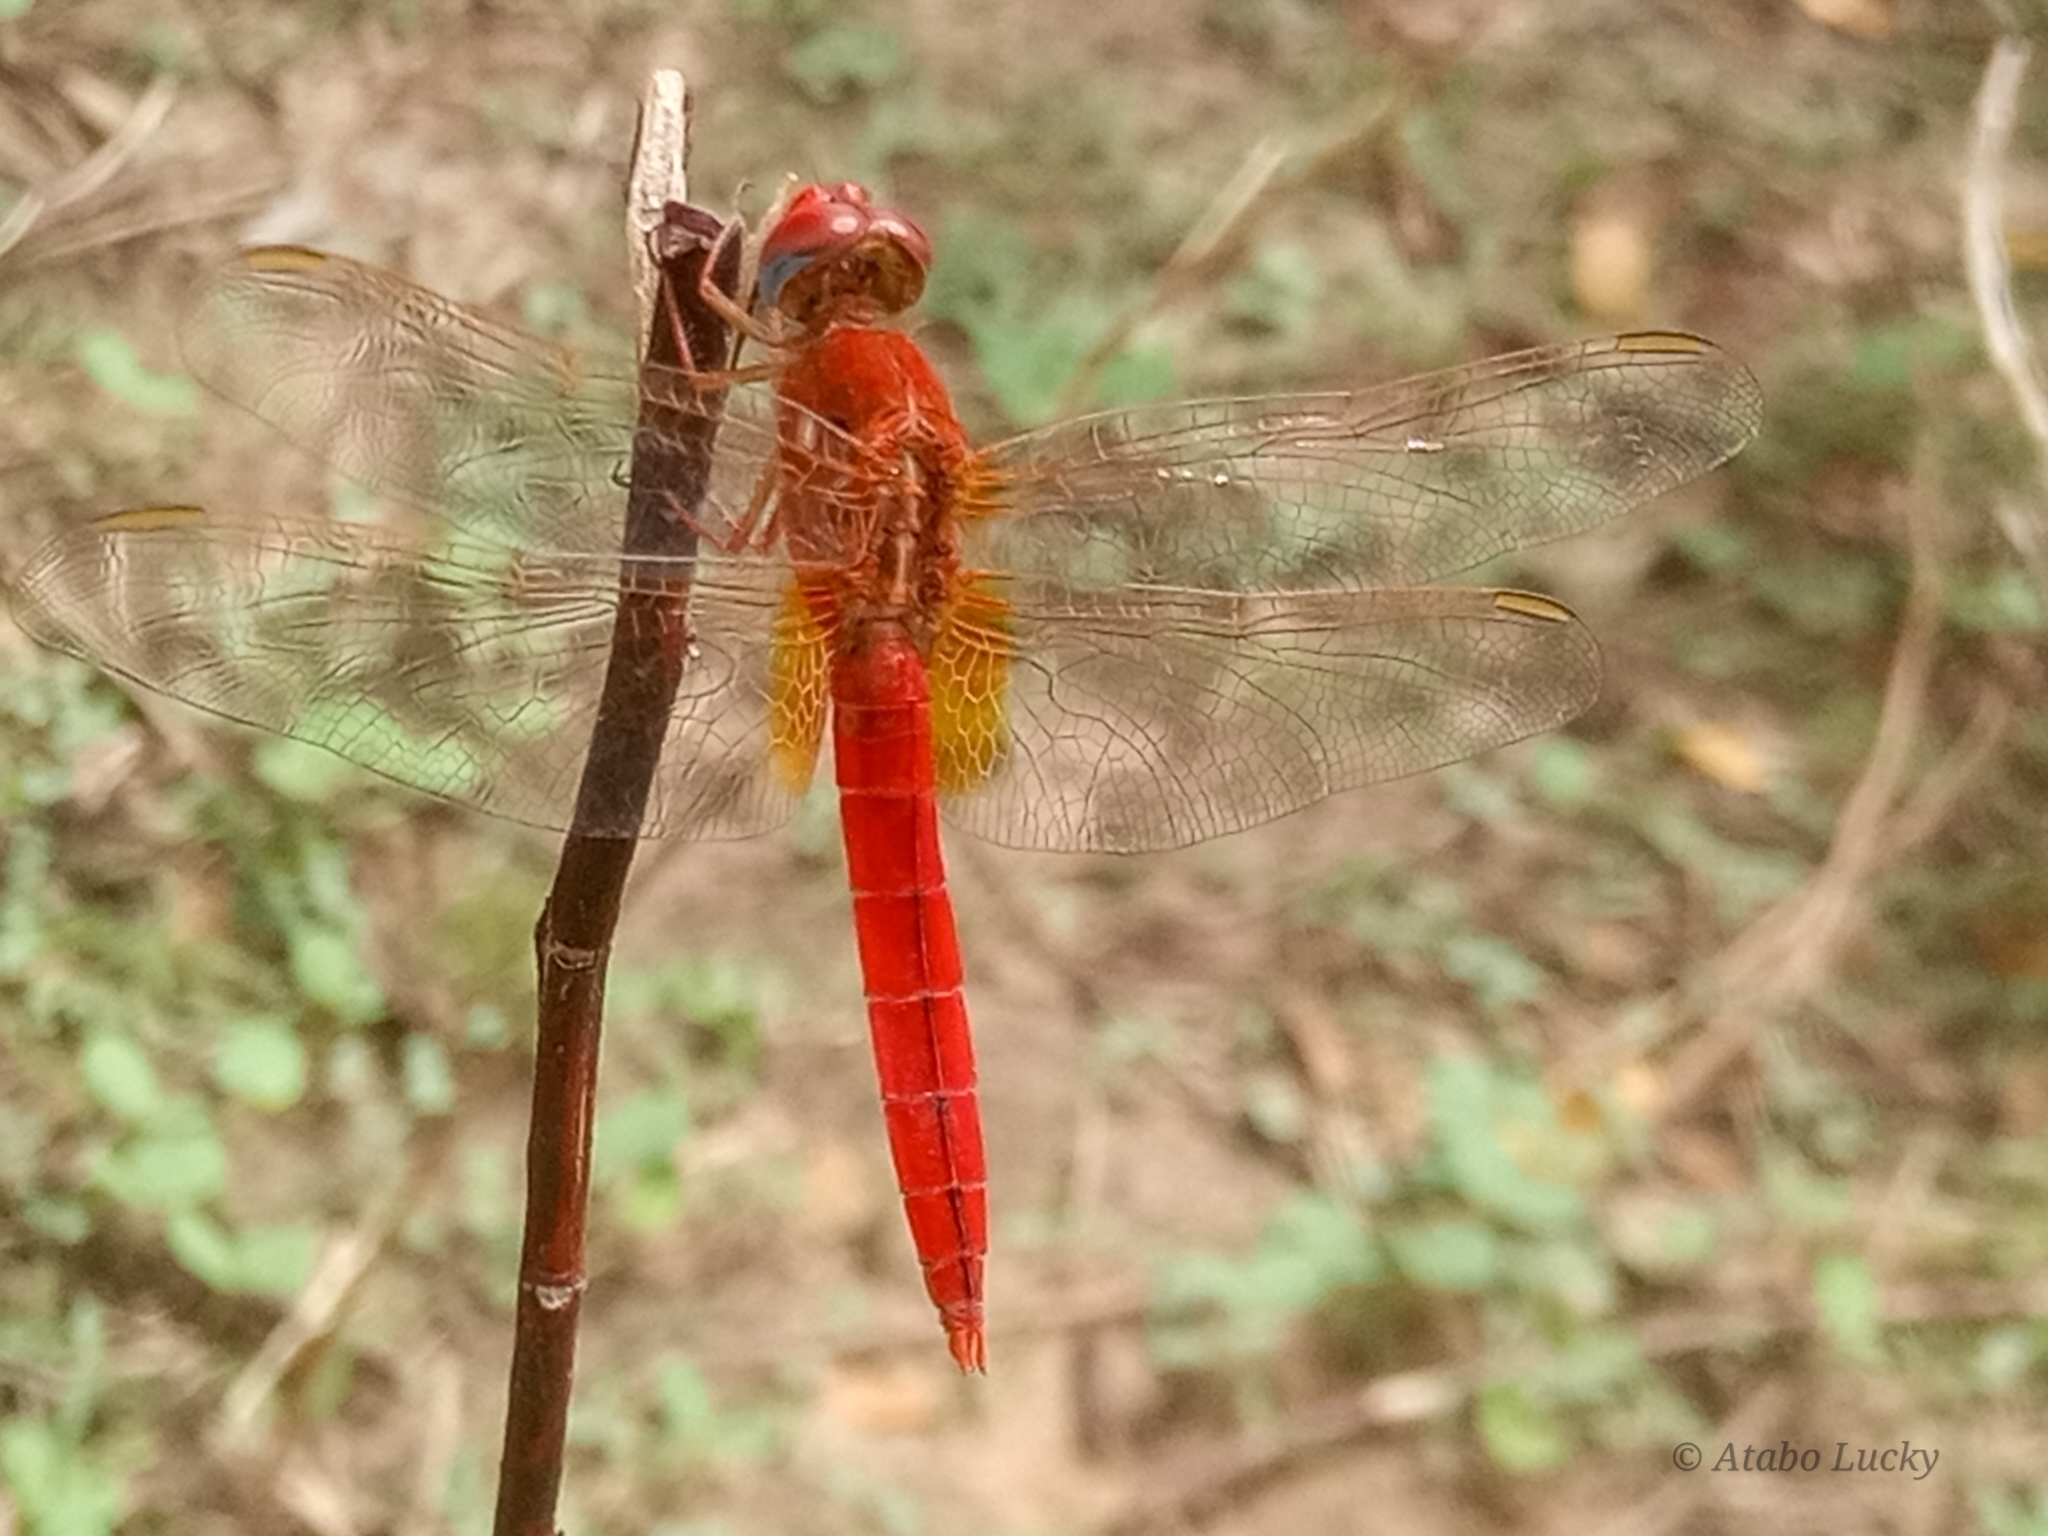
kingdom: Animalia
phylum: Arthropoda
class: Insecta
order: Odonata
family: Libellulidae
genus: Crocothemis
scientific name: Crocothemis erythraea
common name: Scarlet dragonfly
